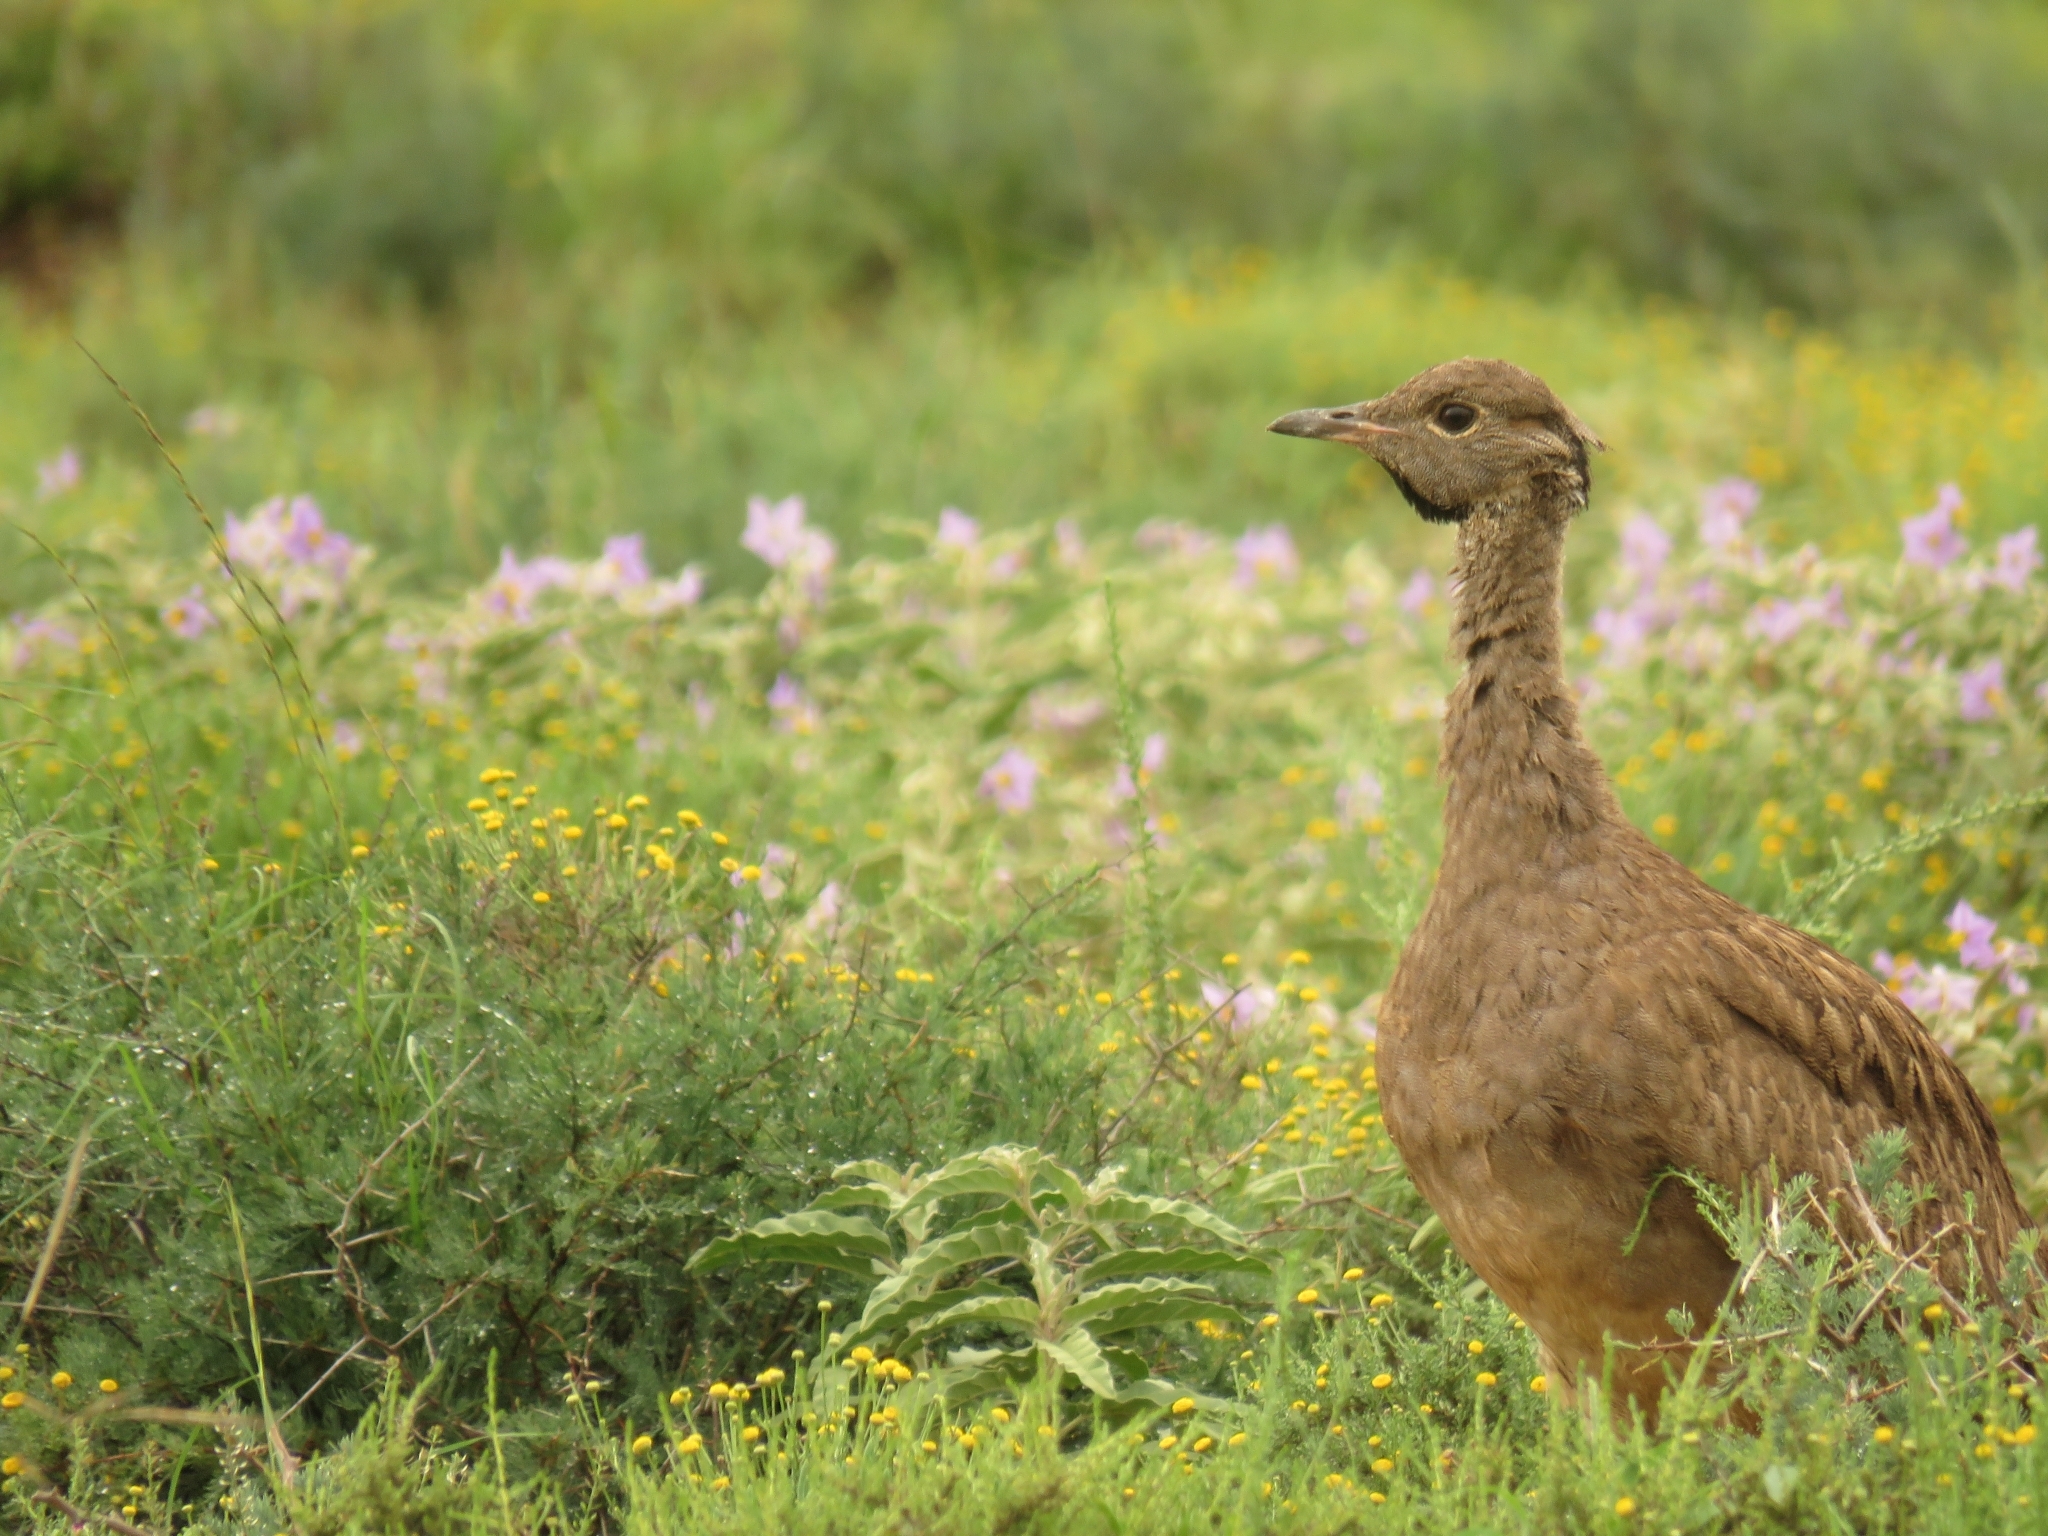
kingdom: Animalia
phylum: Chordata
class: Aves
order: Otidiformes
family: Otididae
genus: Eupodotis
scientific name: Eupodotis vigorsii
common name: Karoo korhaan
